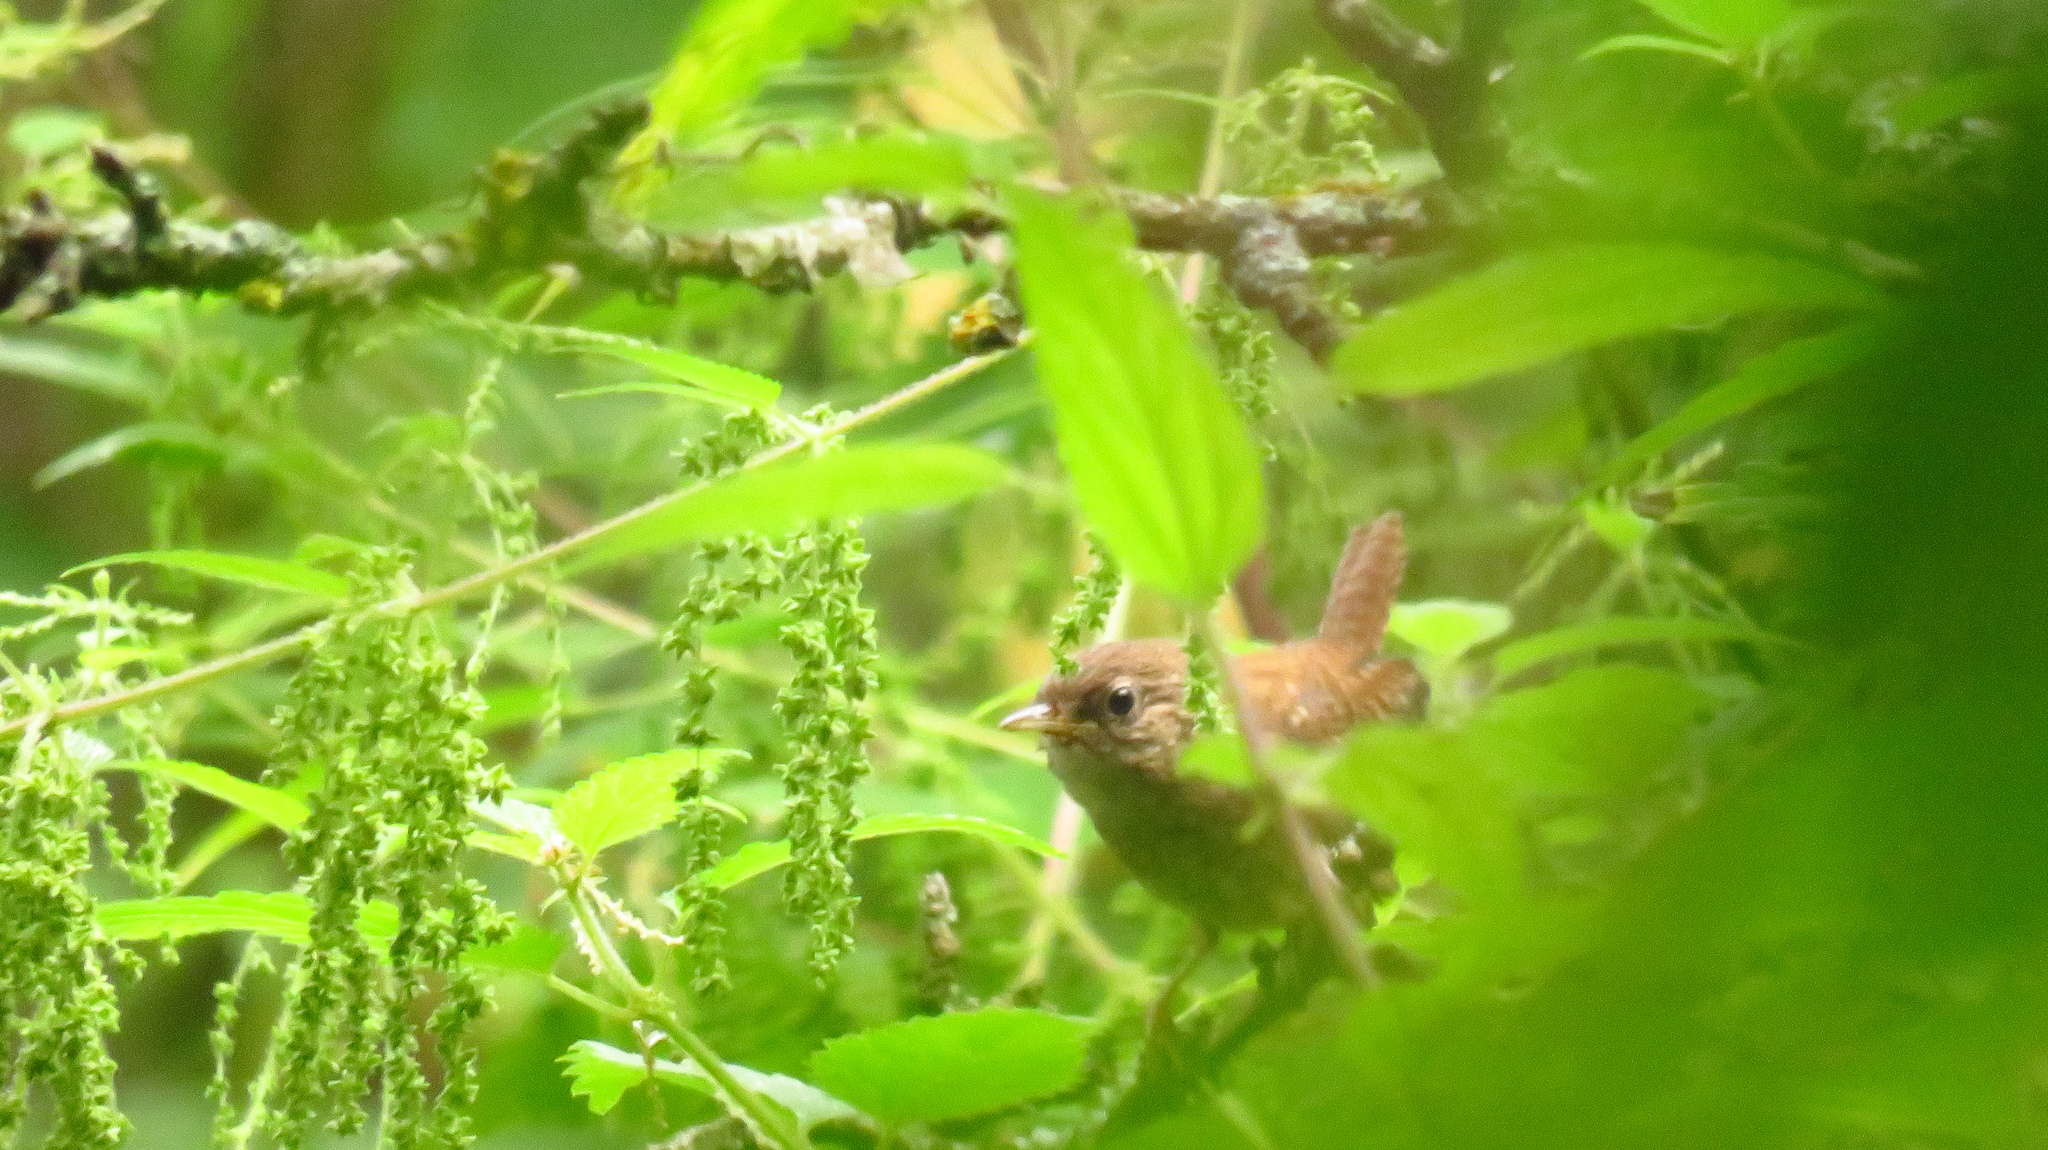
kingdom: Animalia
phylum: Chordata
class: Aves
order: Passeriformes
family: Troglodytidae
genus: Troglodytes
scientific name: Troglodytes troglodytes
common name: Eurasian wren
